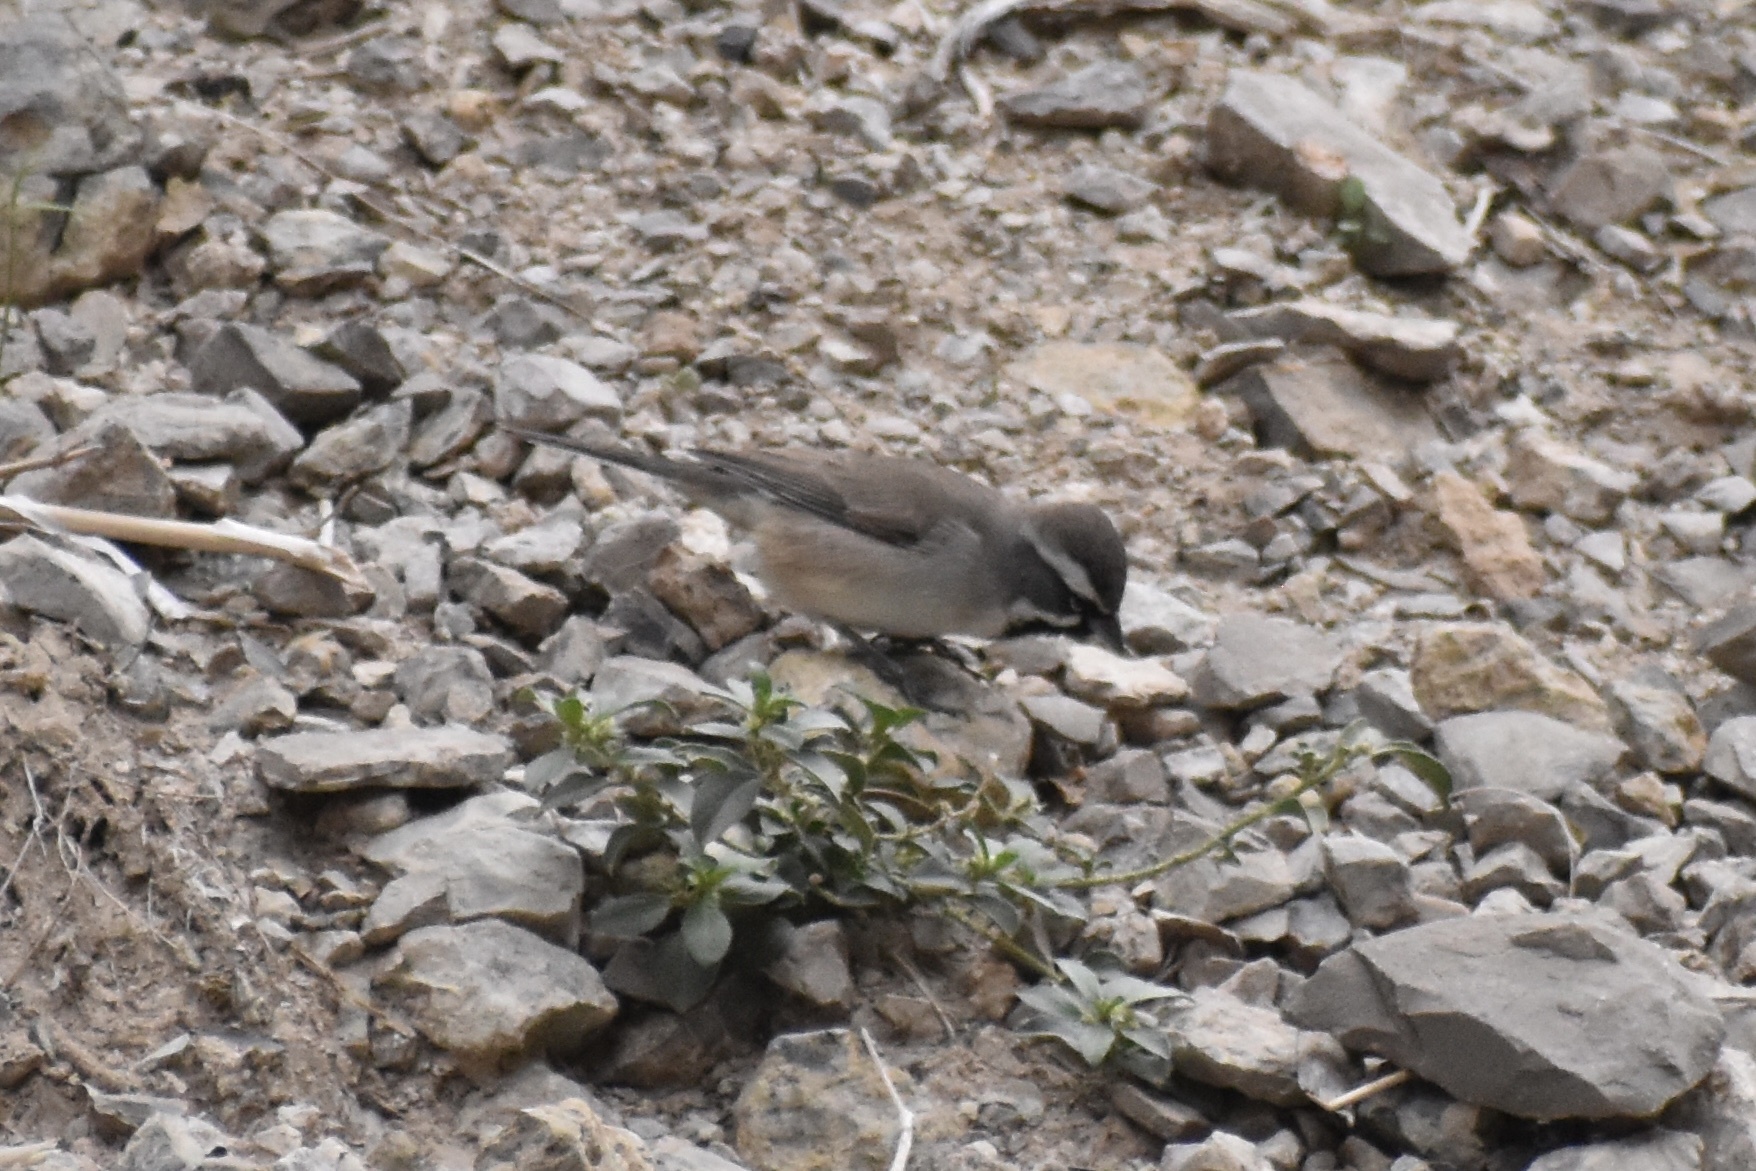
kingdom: Animalia
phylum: Chordata
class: Aves
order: Passeriformes
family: Passerellidae
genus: Amphispiza
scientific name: Amphispiza bilineata
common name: Black-throated sparrow
